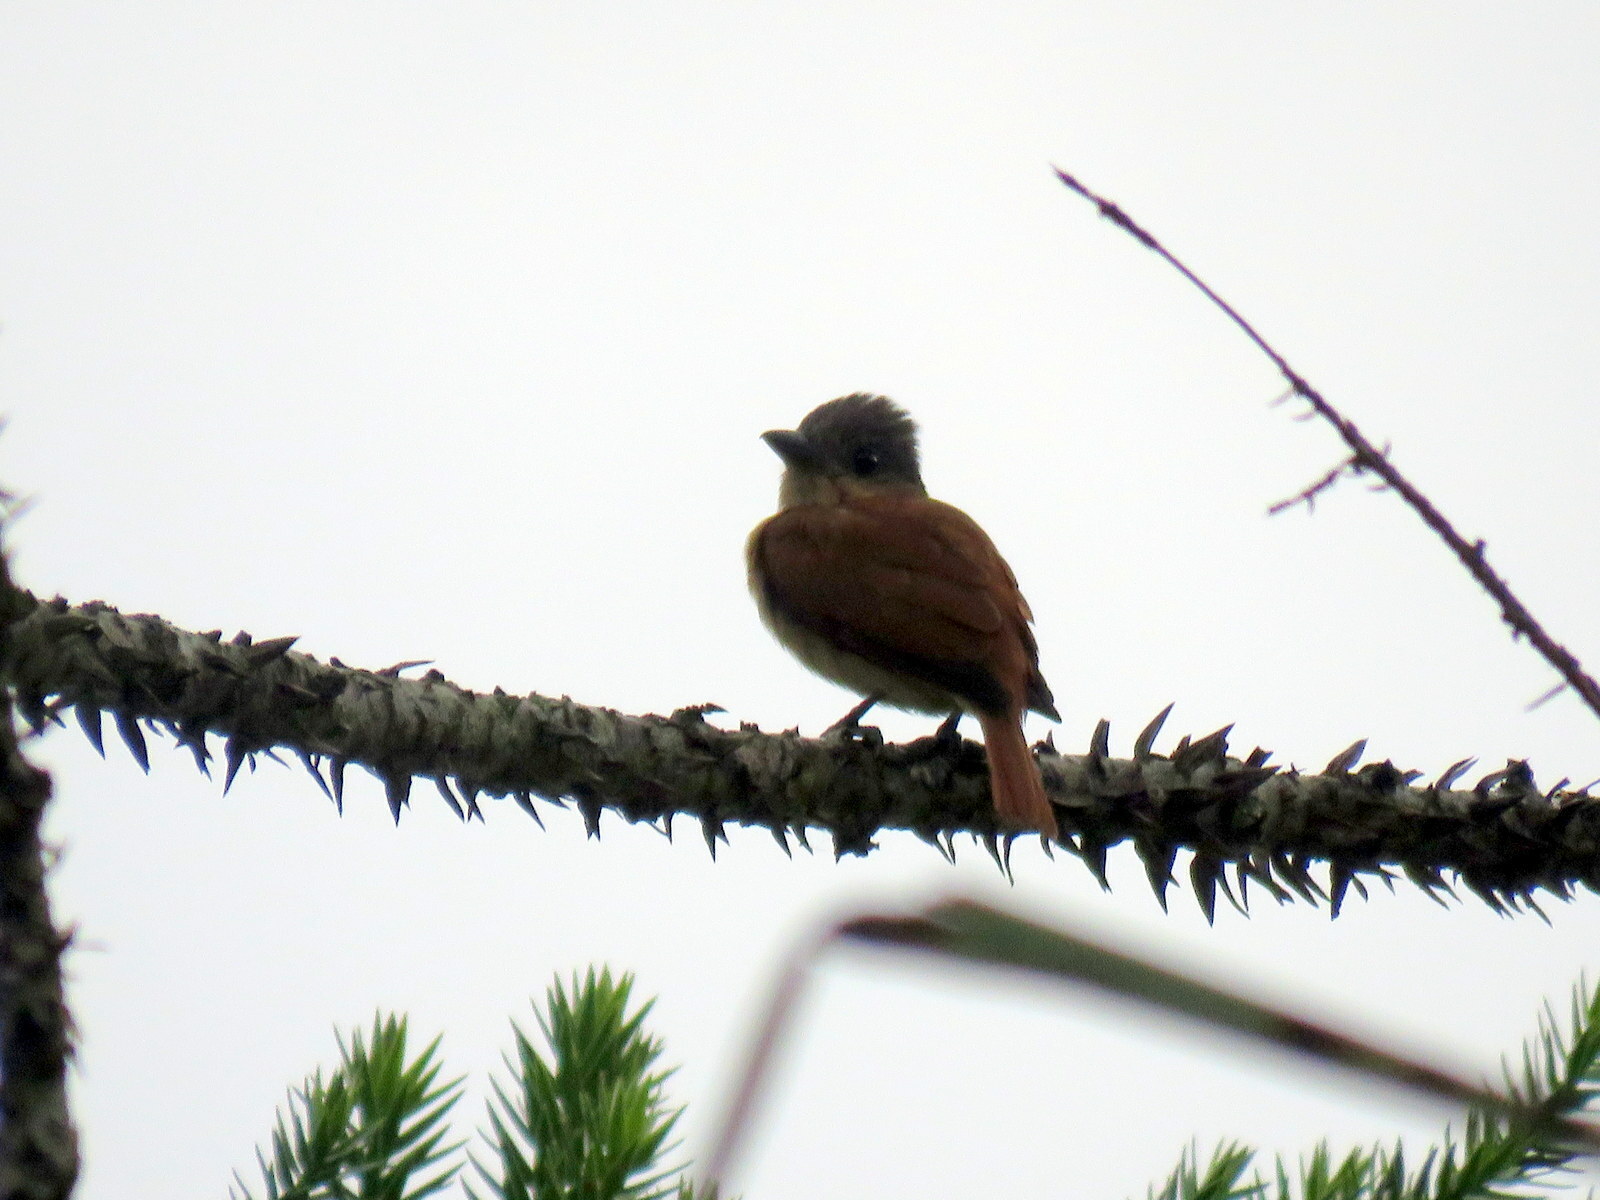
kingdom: Animalia
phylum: Chordata
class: Aves
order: Passeriformes
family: Cotingidae
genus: Pachyramphus
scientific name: Pachyramphus validus
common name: Crested becard
